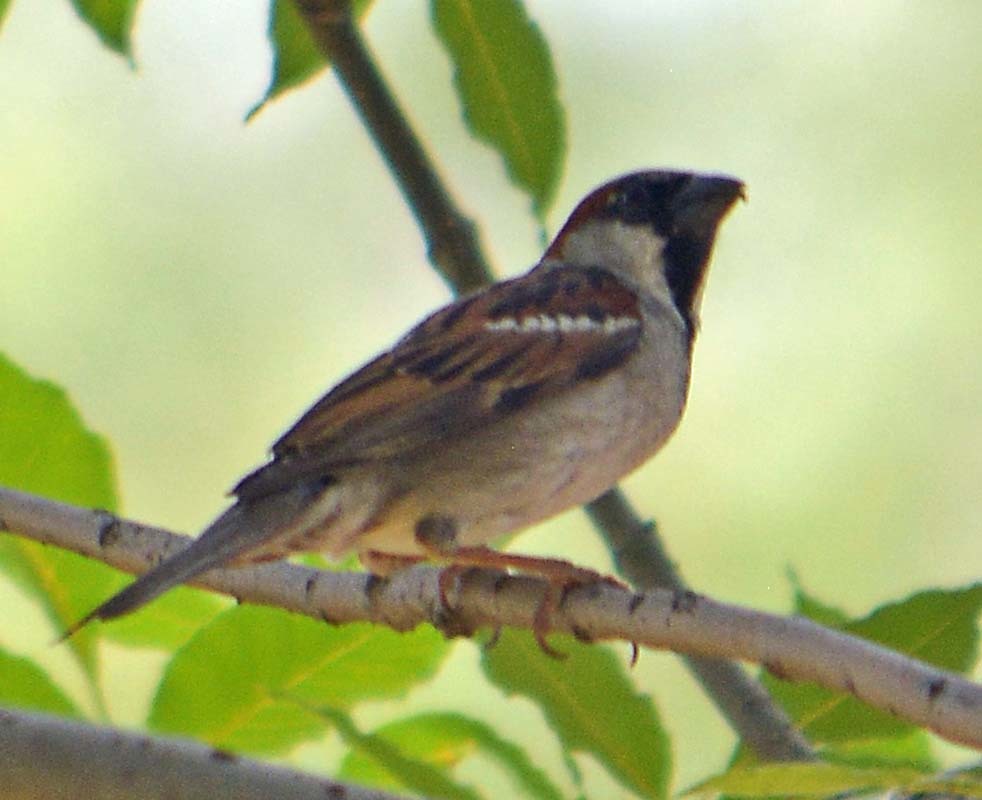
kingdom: Animalia
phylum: Chordata
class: Aves
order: Passeriformes
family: Passeridae
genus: Passer
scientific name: Passer domesticus
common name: House sparrow
